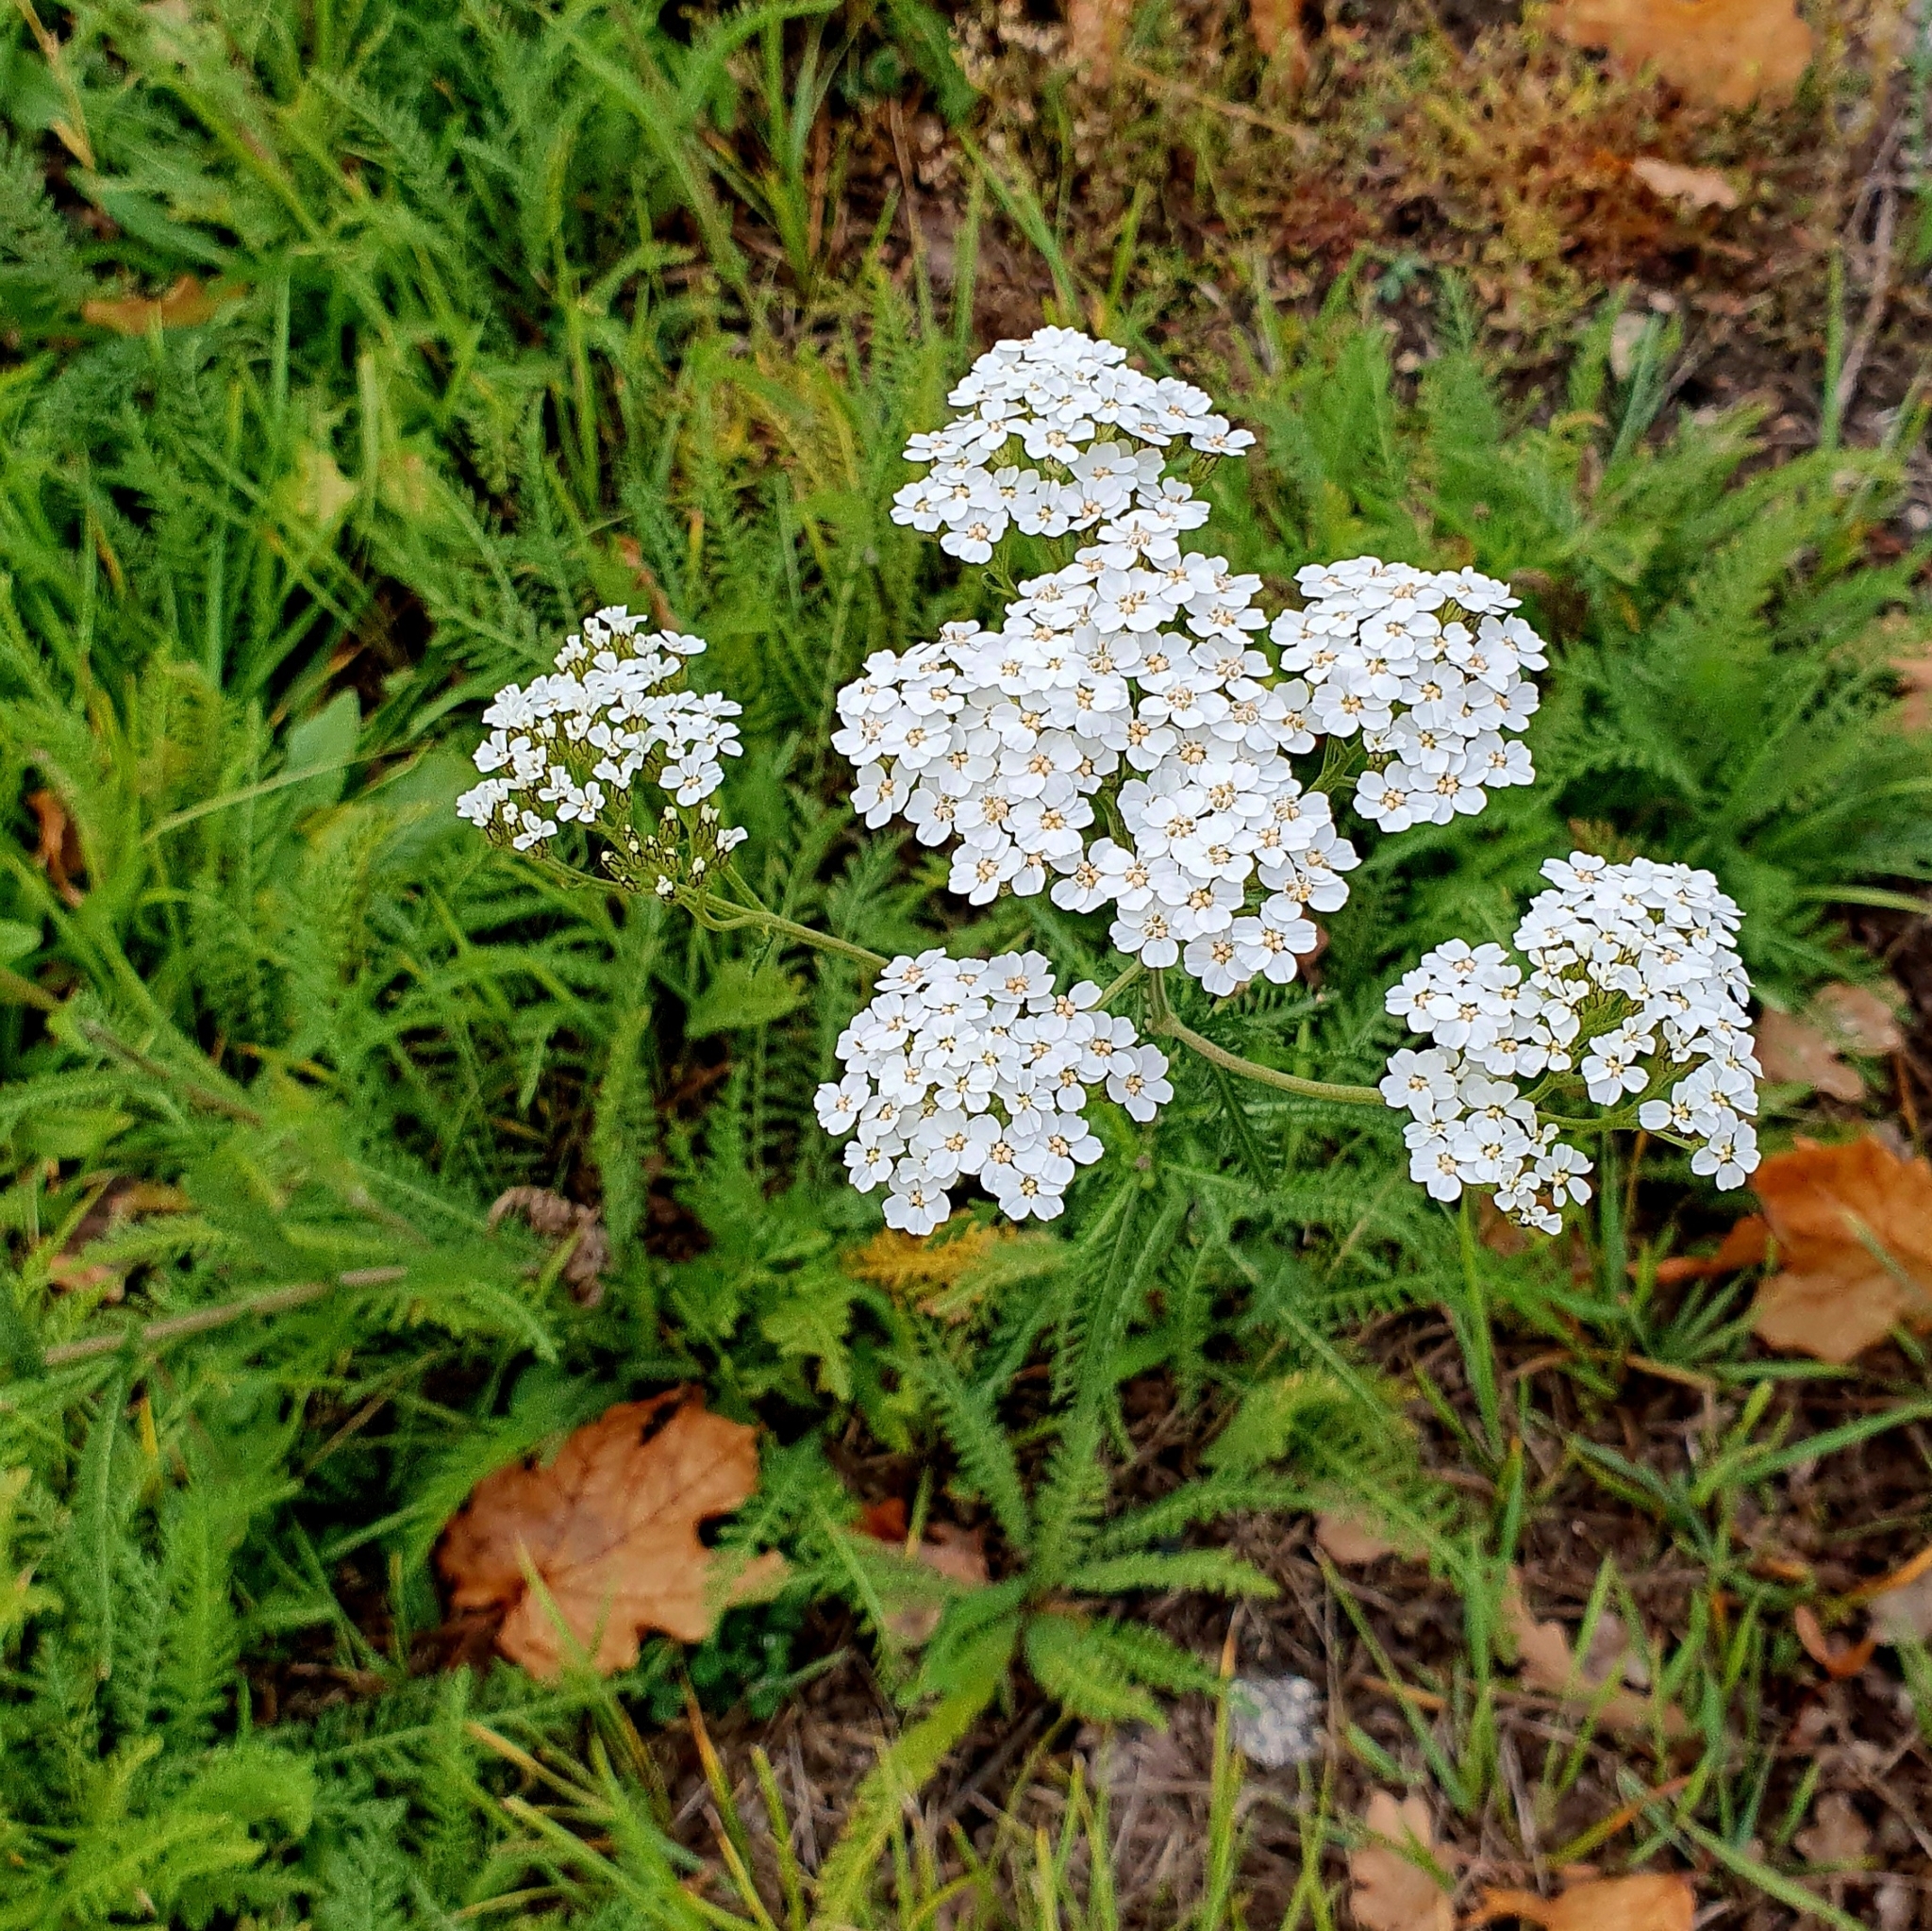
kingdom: Plantae
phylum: Tracheophyta
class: Magnoliopsida
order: Asterales
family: Asteraceae
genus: Achillea
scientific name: Achillea millefolium
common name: Yarrow
